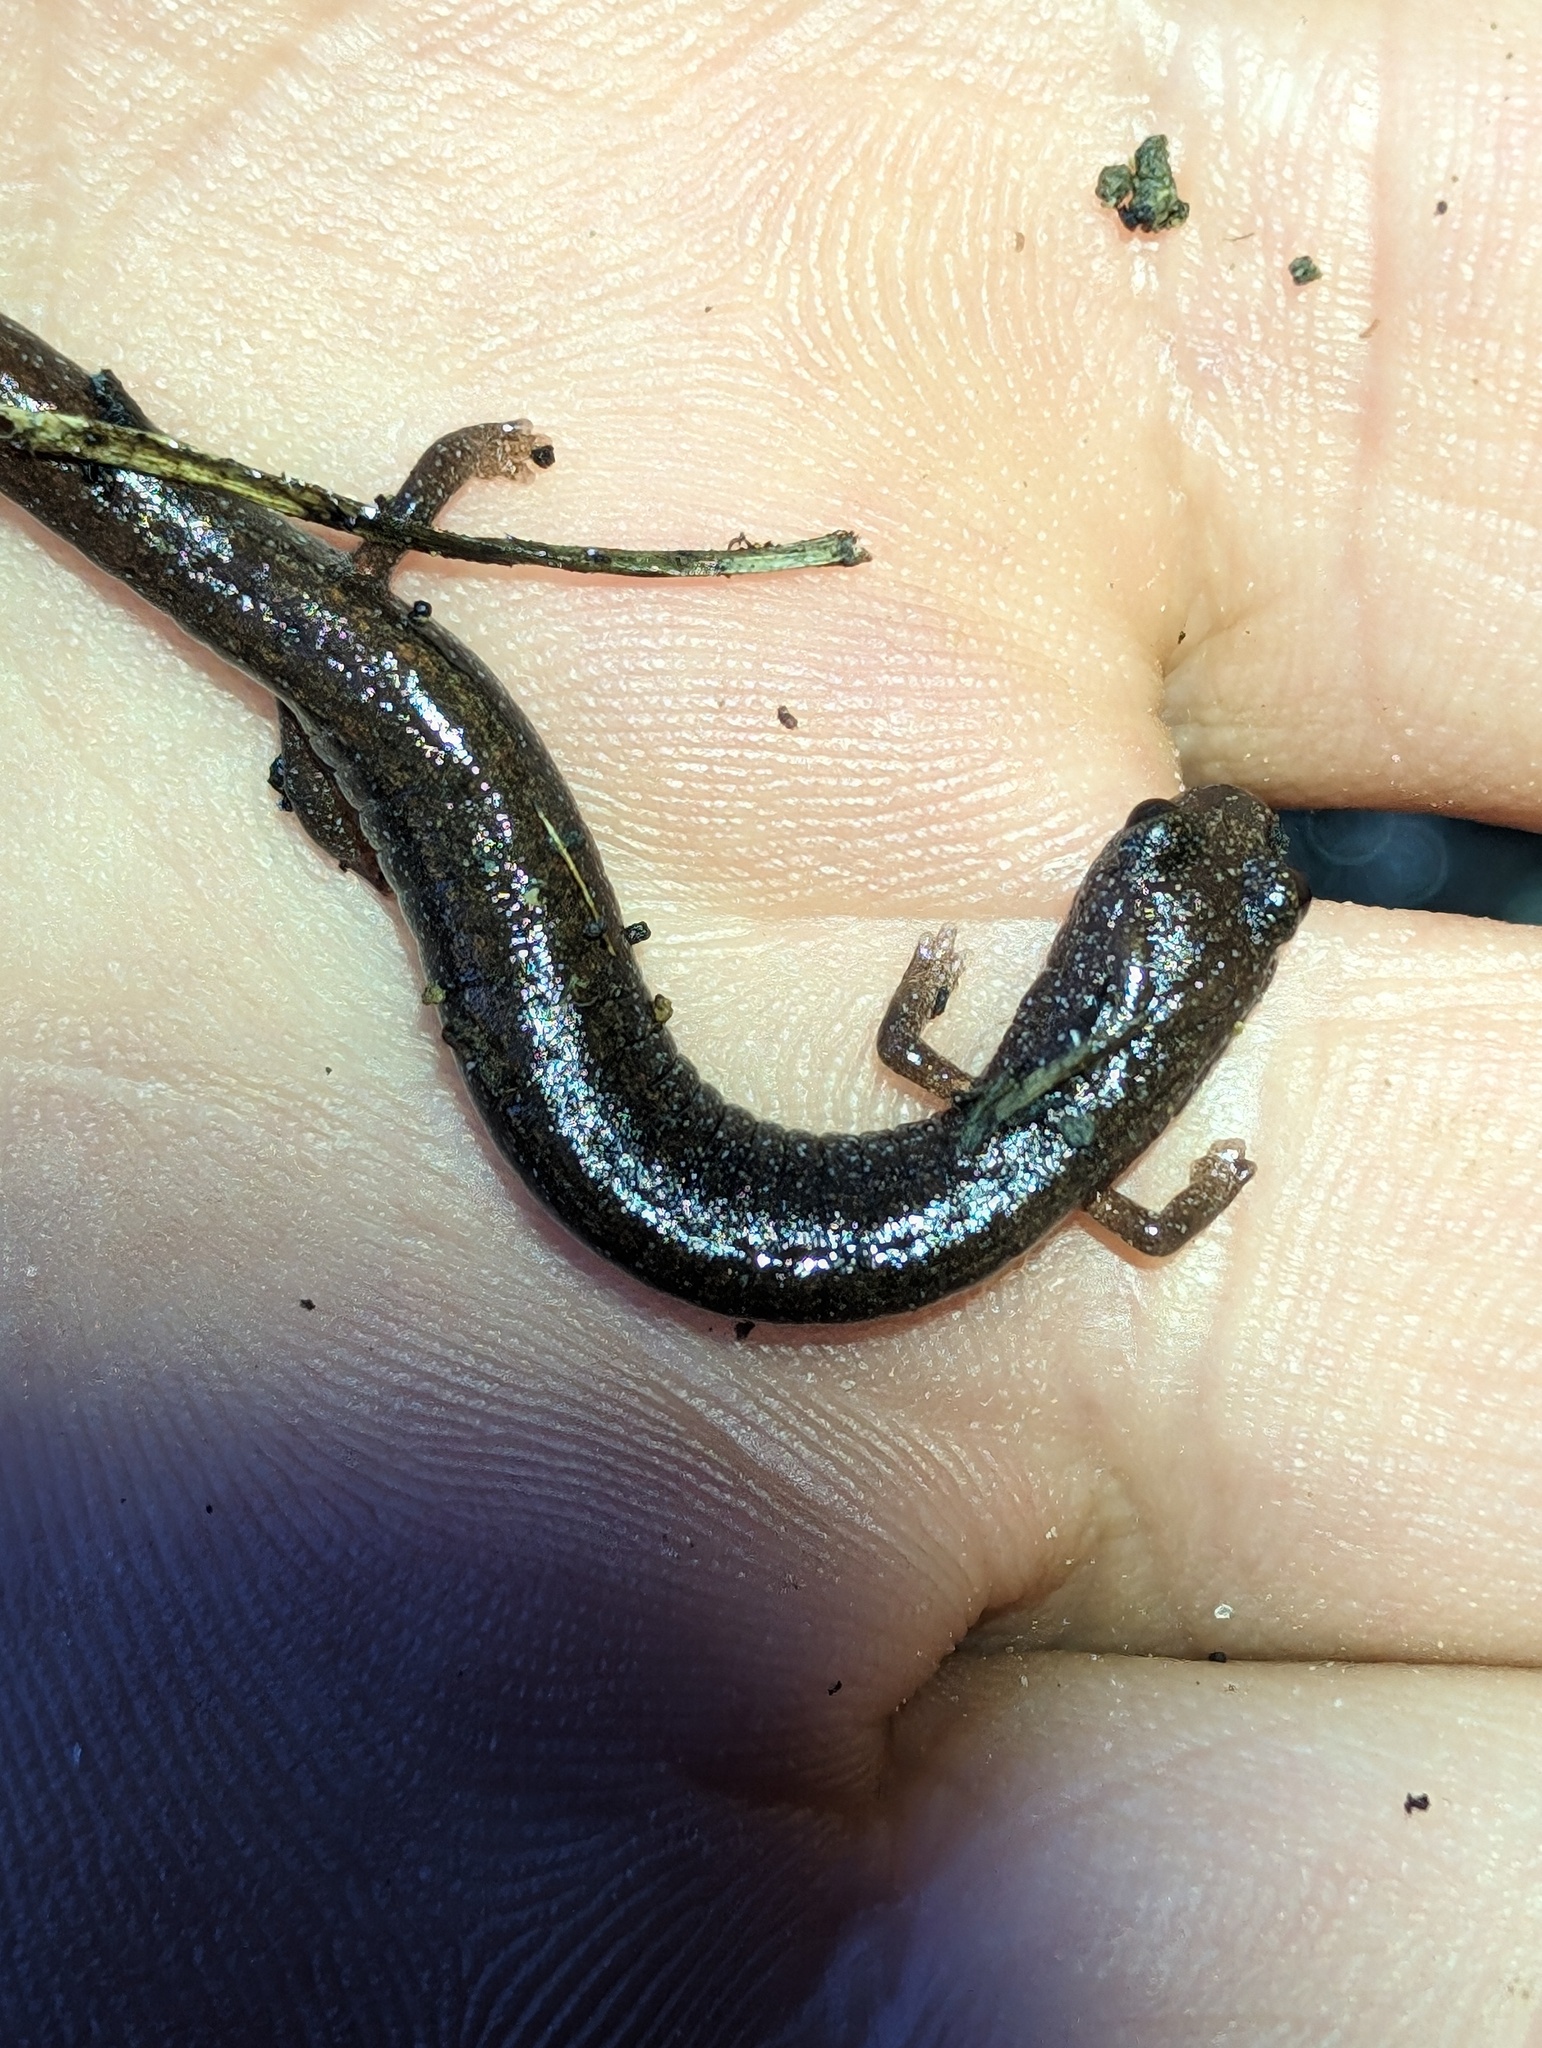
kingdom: Animalia
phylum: Chordata
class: Amphibia
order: Caudata
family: Plethodontidae
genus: Batrachoseps
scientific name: Batrachoseps major
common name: Garden slender salamander
